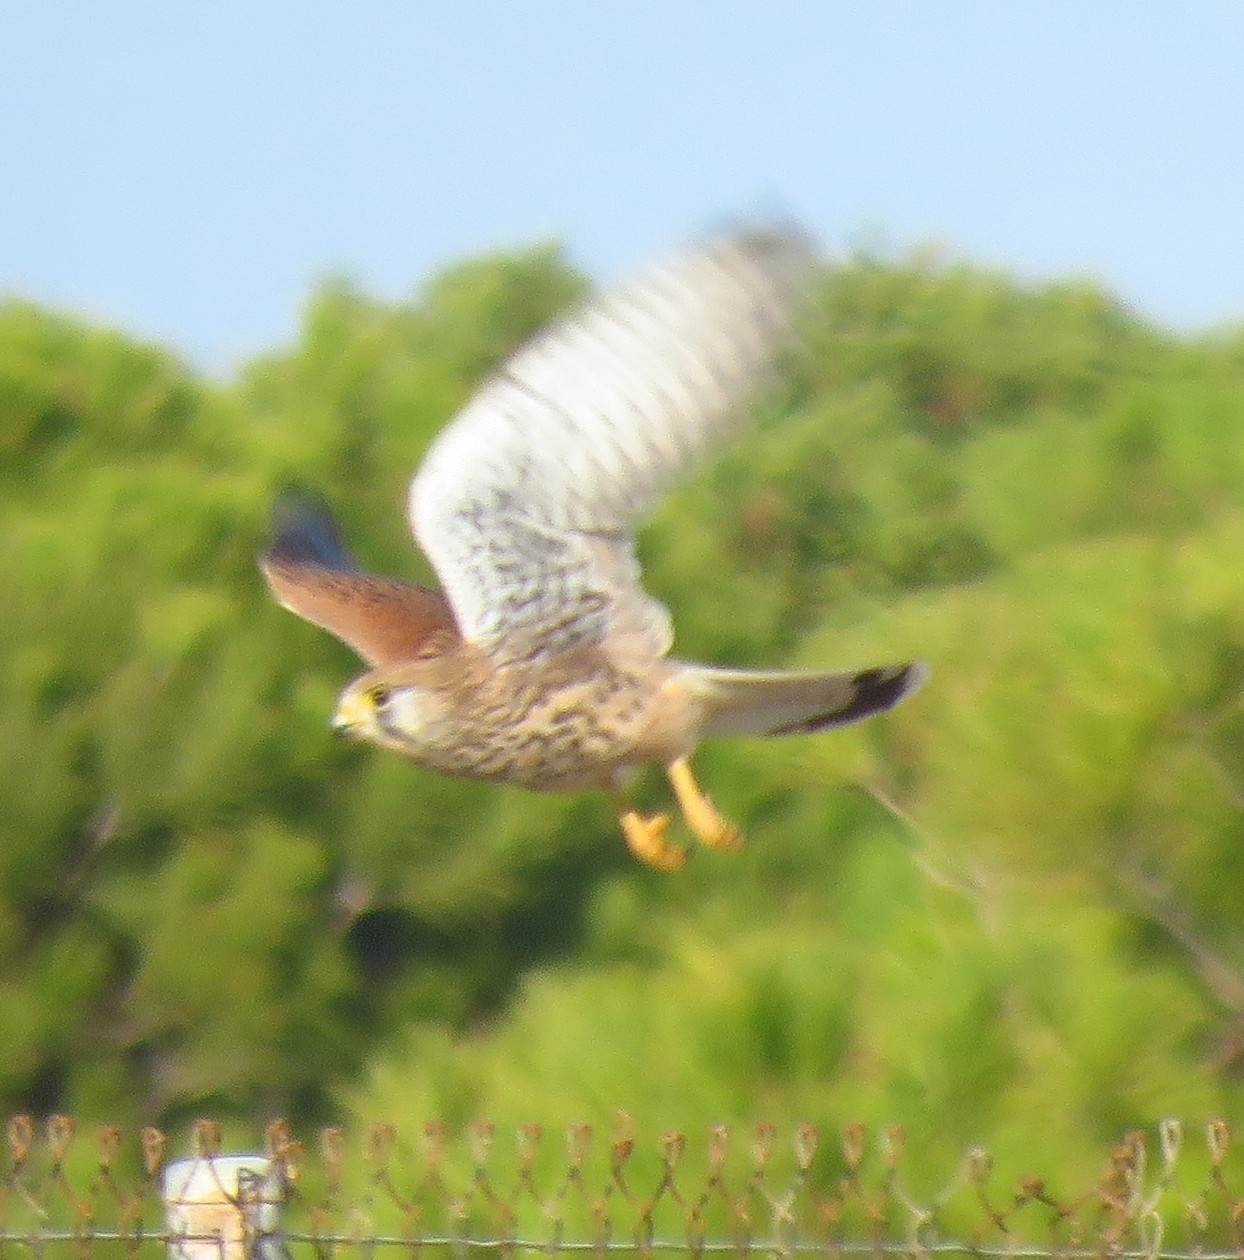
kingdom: Animalia
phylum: Chordata
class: Aves
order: Falconiformes
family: Falconidae
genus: Falco
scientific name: Falco tinnunculus
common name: Common kestrel
